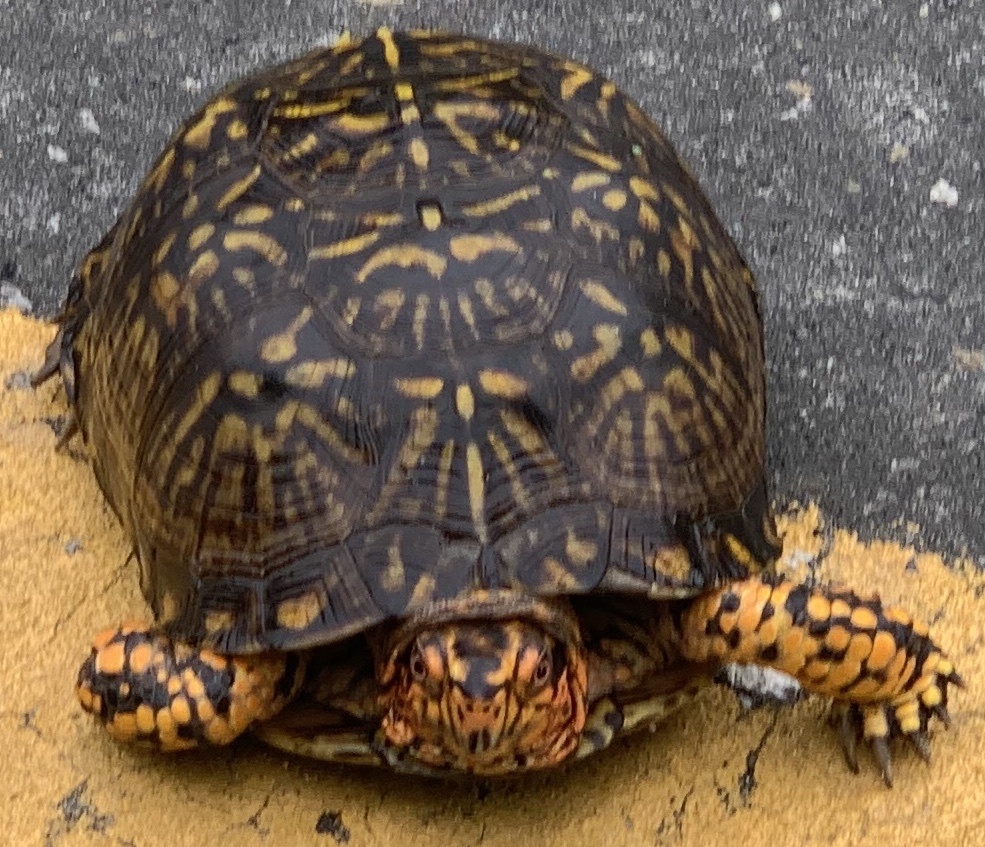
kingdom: Animalia
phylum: Chordata
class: Testudines
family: Emydidae
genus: Terrapene
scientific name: Terrapene carolina
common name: Common box turtle
